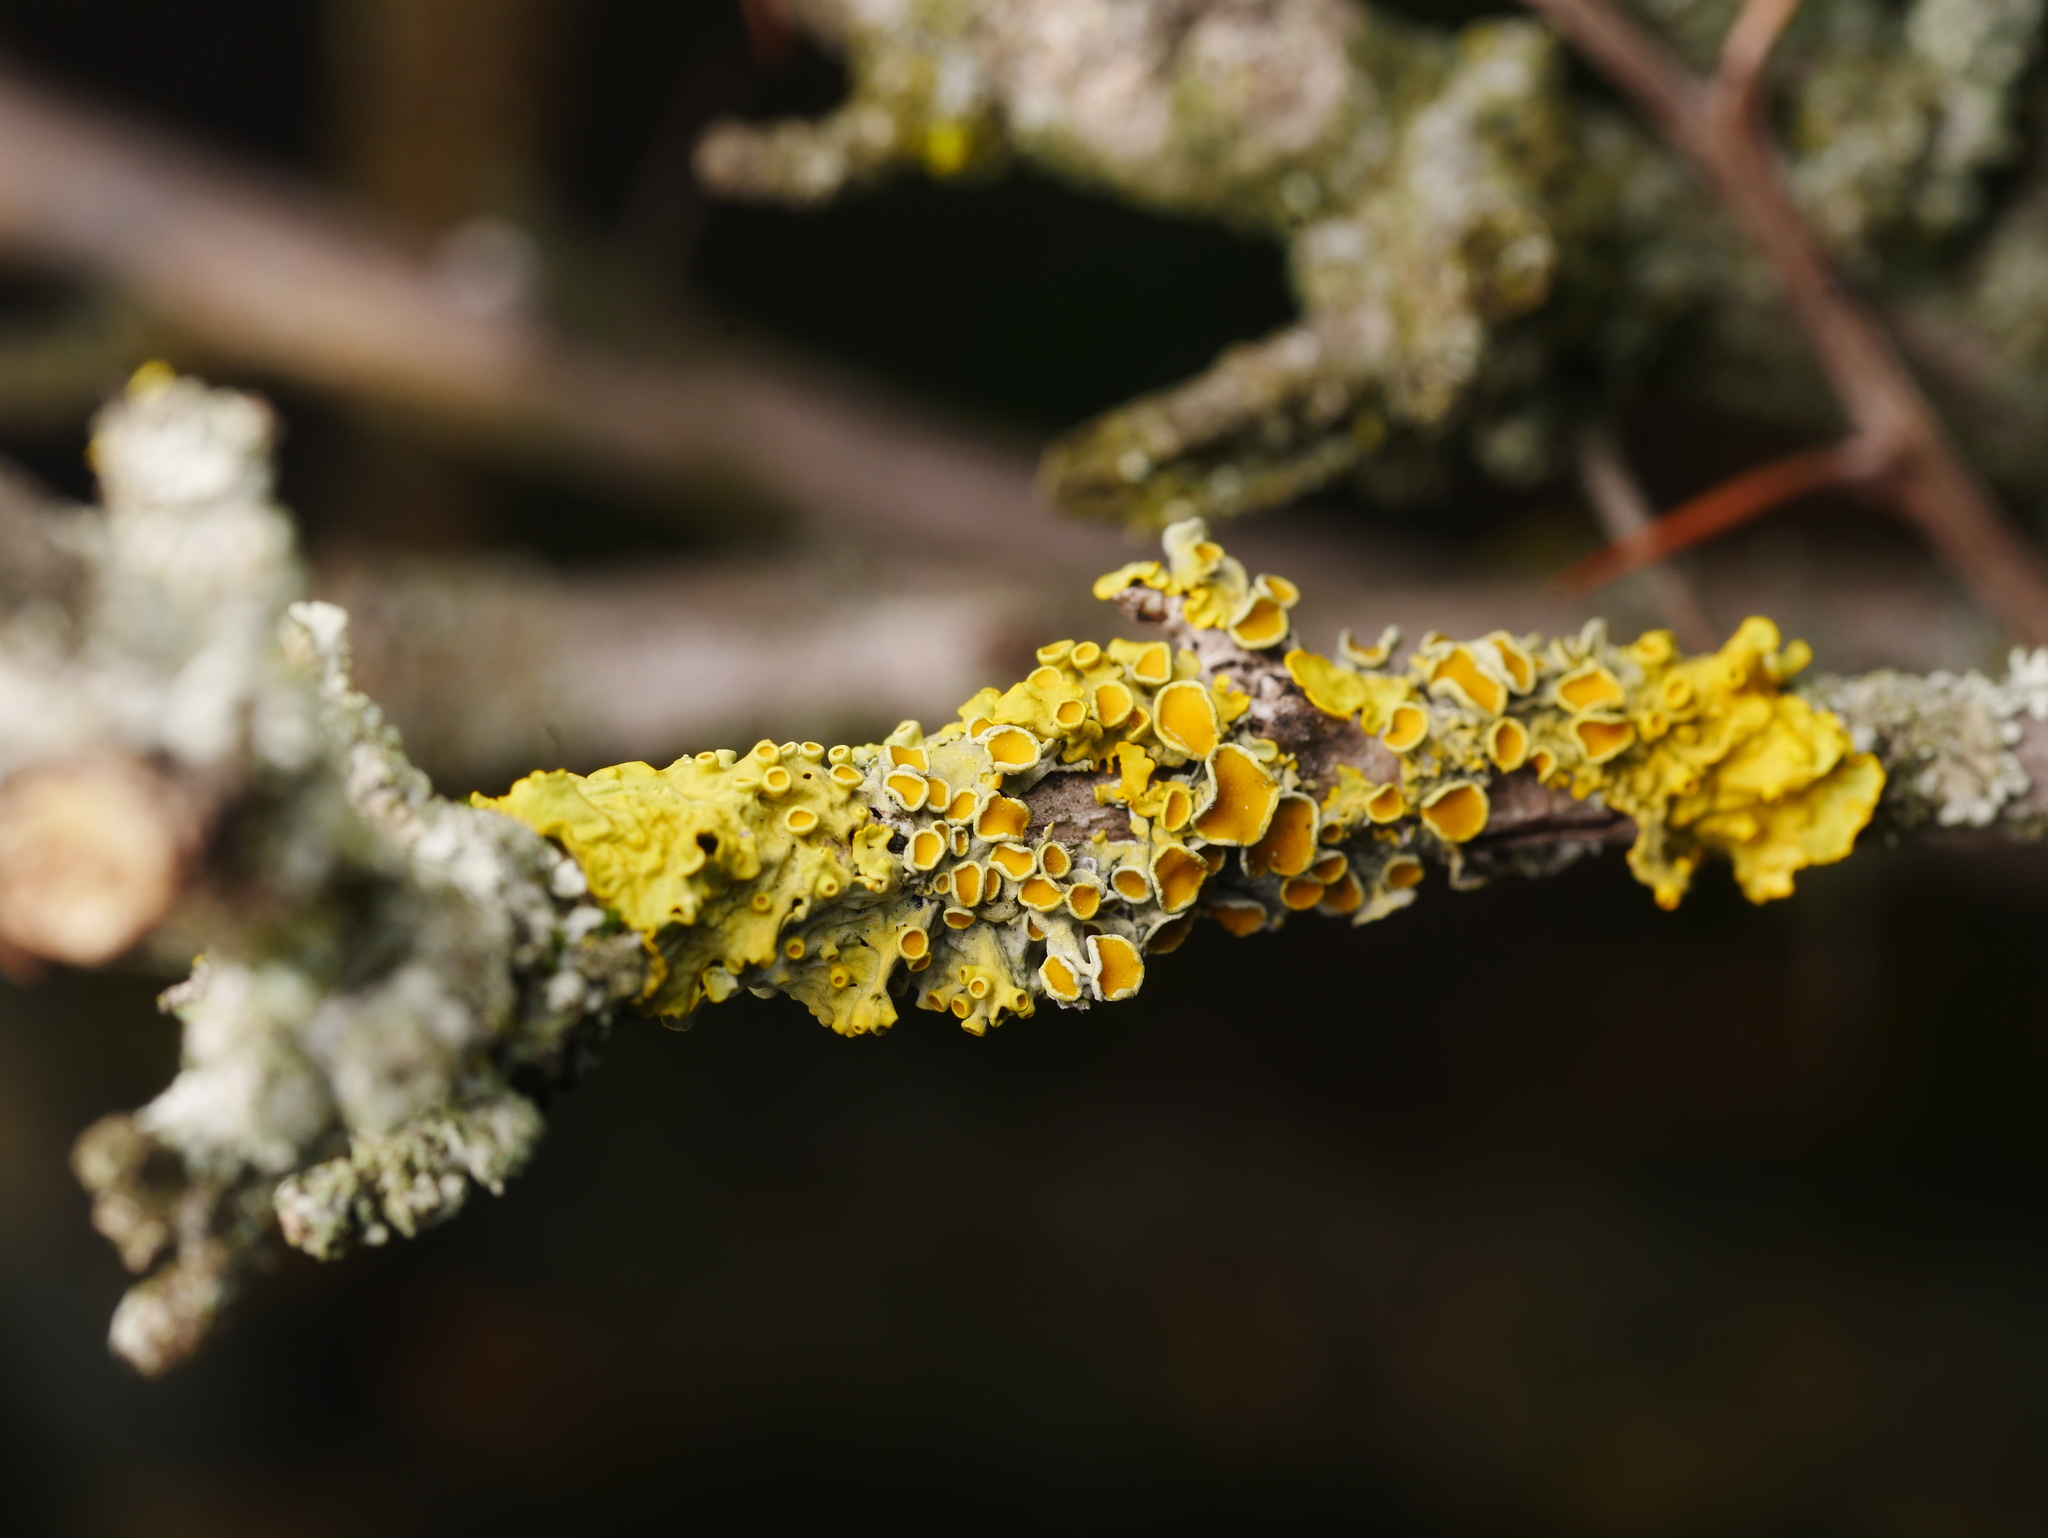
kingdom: Fungi
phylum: Ascomycota
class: Lecanoromycetes
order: Teloschistales
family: Teloschistaceae
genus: Xanthoria
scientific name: Xanthoria parietina
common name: Common orange lichen
